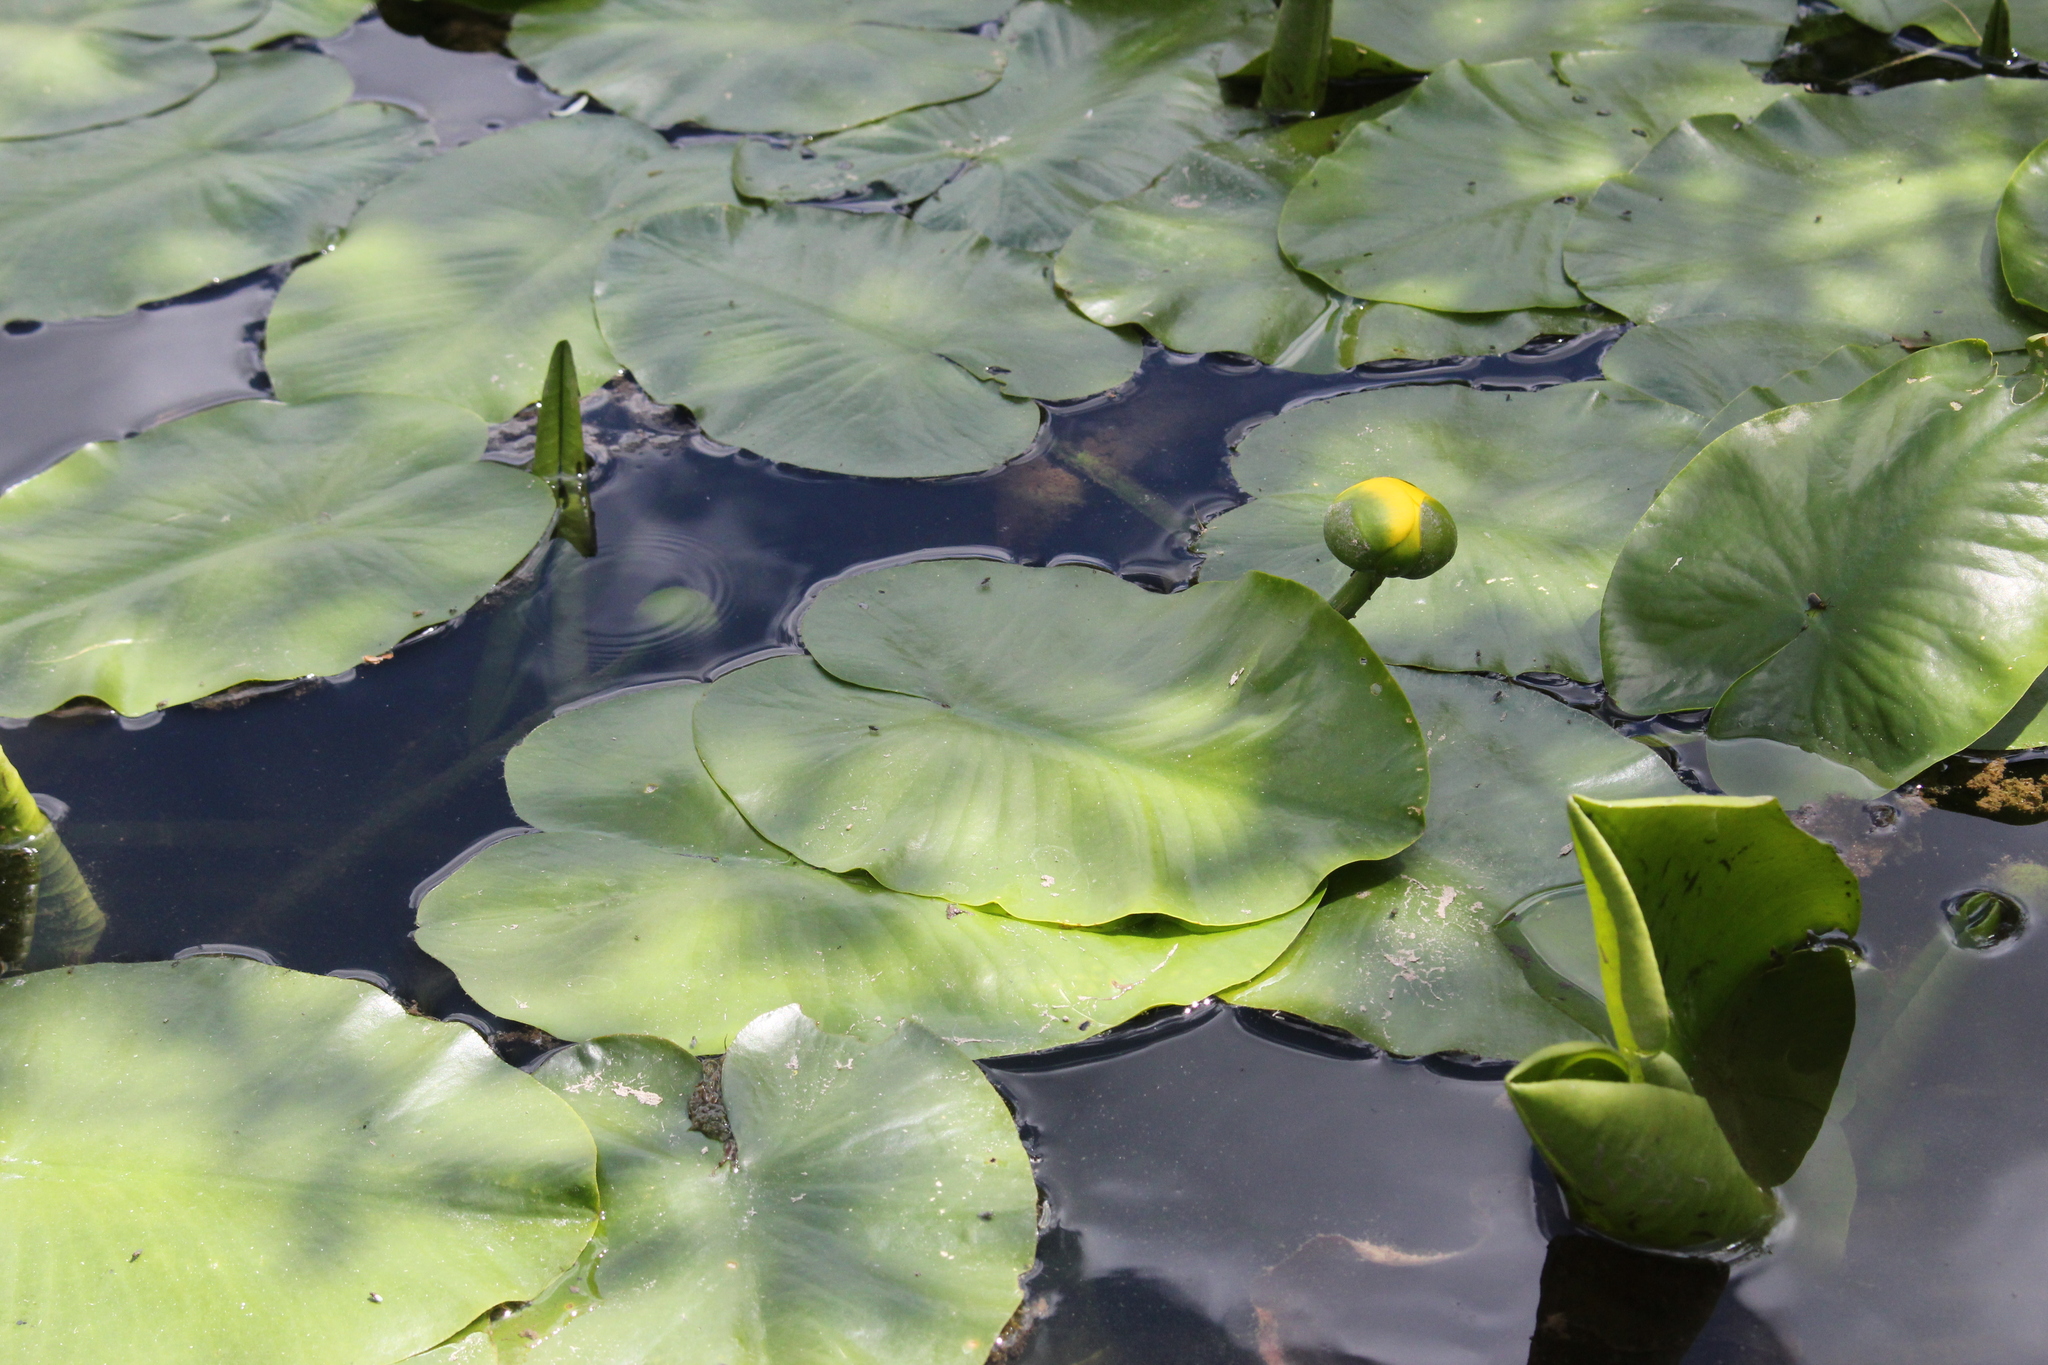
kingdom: Plantae
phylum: Tracheophyta
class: Magnoliopsida
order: Nymphaeales
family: Nymphaeaceae
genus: Nuphar
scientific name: Nuphar variegata
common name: Beaver-root
